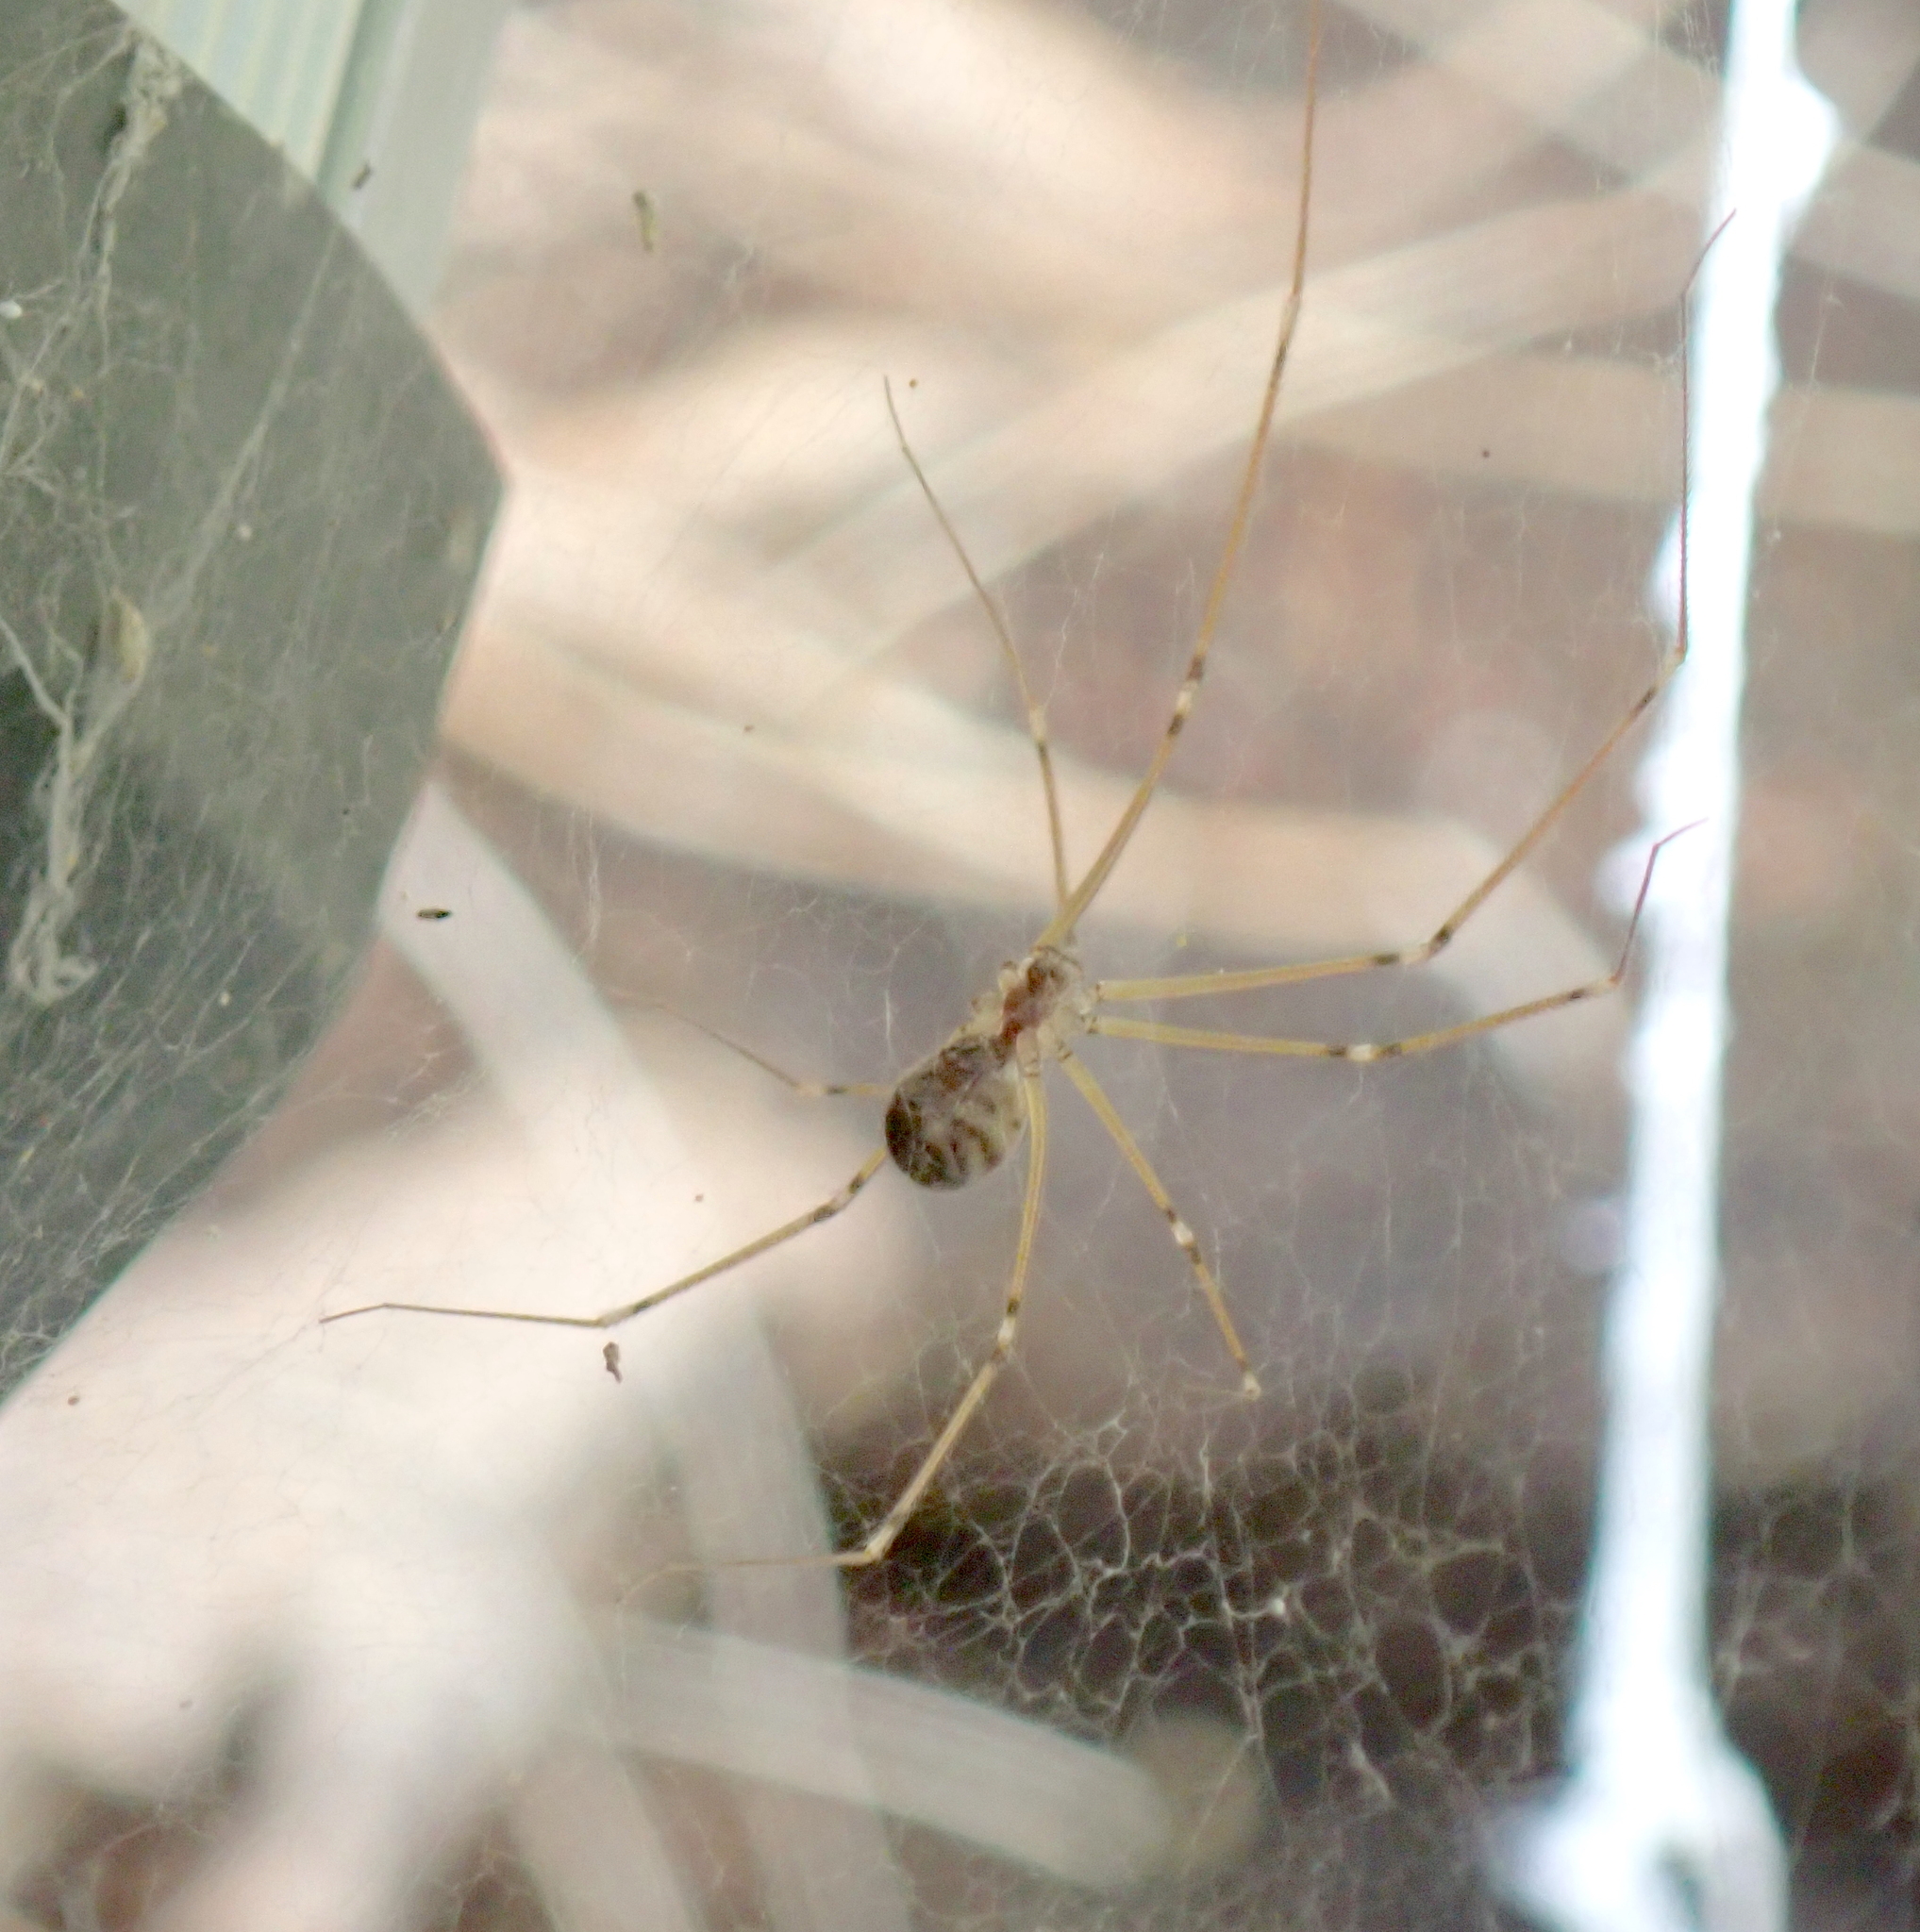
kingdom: Animalia
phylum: Arthropoda
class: Arachnida
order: Araneae
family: Pholcidae
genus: Hoplopholcus
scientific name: Hoplopholcus forskali
